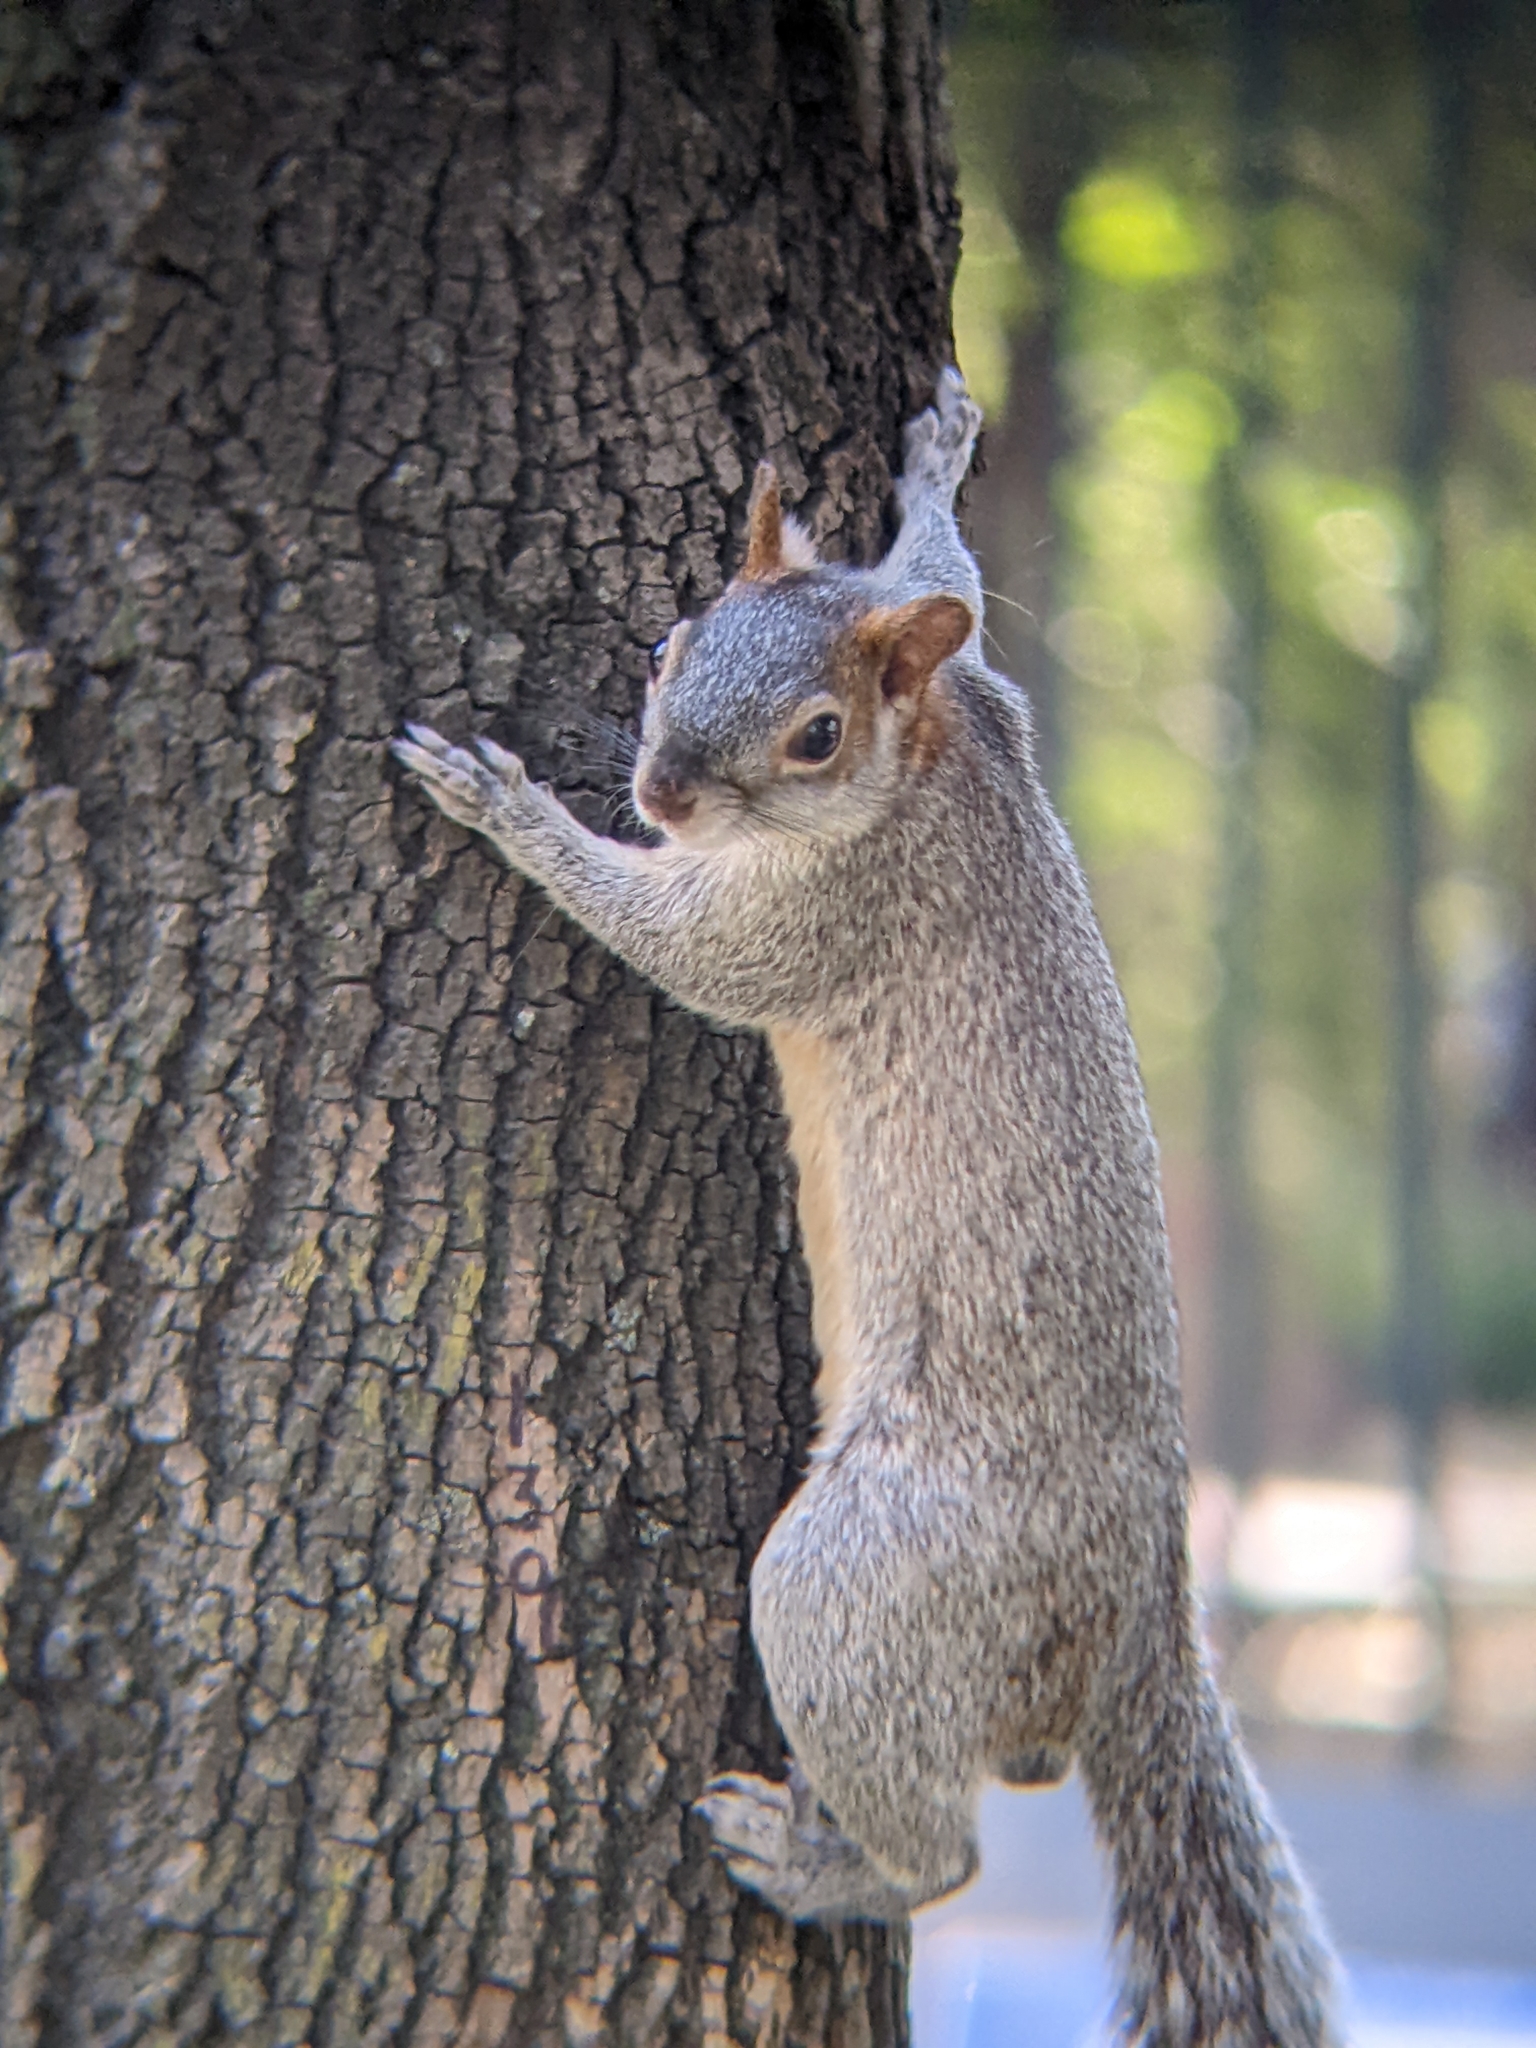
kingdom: Animalia
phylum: Chordata
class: Mammalia
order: Rodentia
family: Sciuridae
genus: Sciurus
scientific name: Sciurus aureogaster
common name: Red-bellied squirrel
